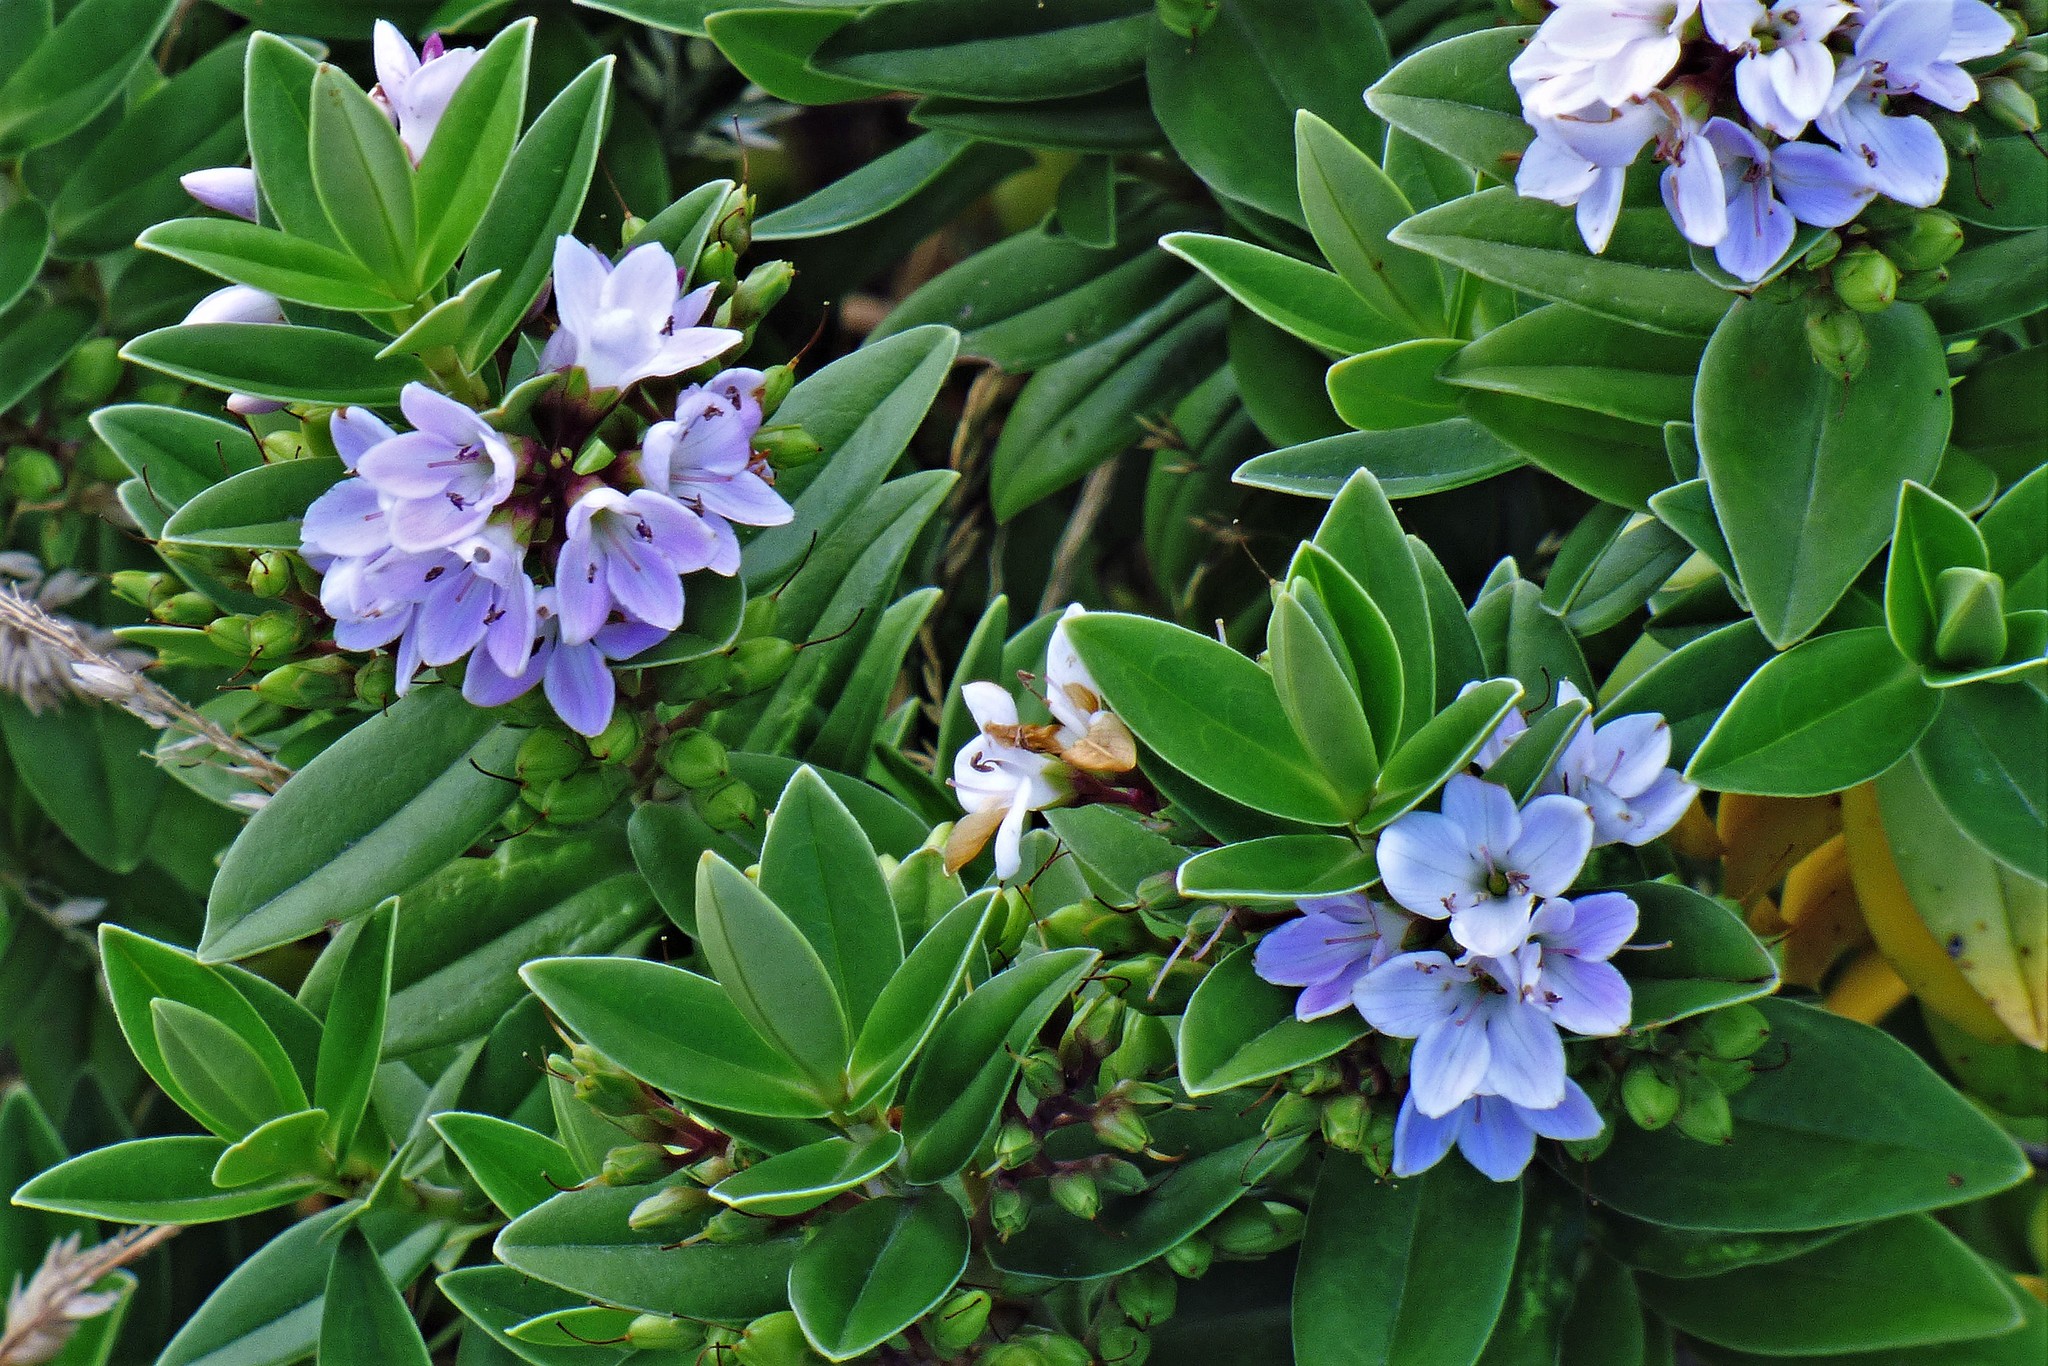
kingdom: Plantae
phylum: Tracheophyta
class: Magnoliopsida
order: Lamiales
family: Plantaginaceae
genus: Veronica
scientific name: Veronica elliptica
